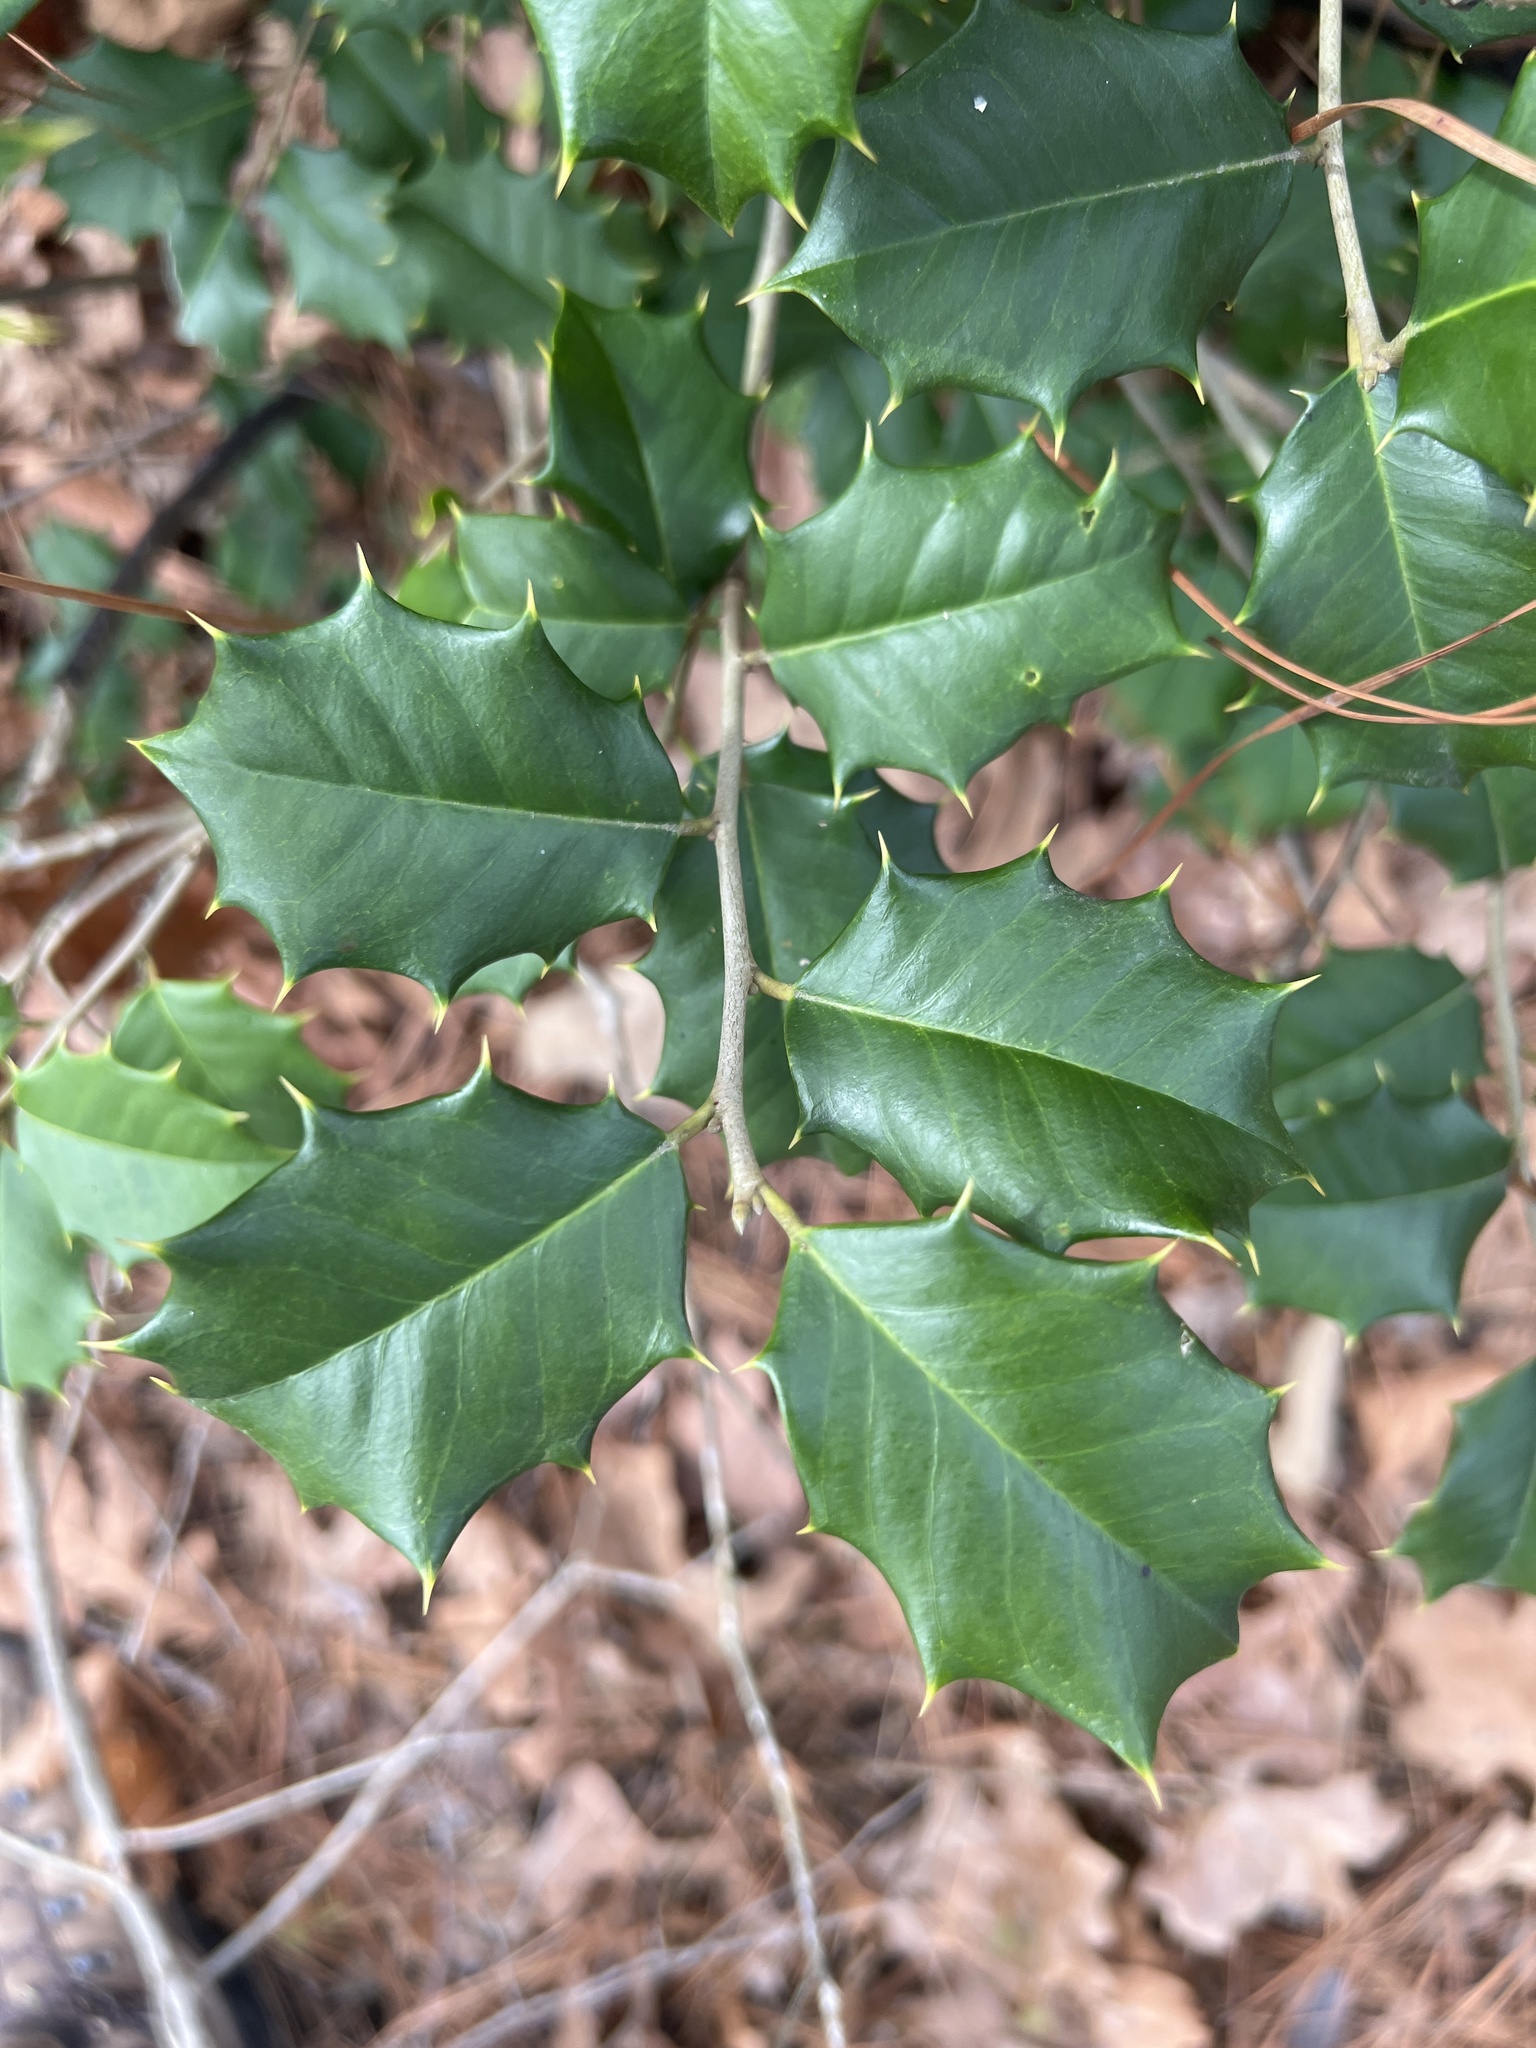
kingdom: Plantae
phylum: Tracheophyta
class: Magnoliopsida
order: Aquifoliales
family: Aquifoliaceae
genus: Ilex
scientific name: Ilex opaca
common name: American holly
